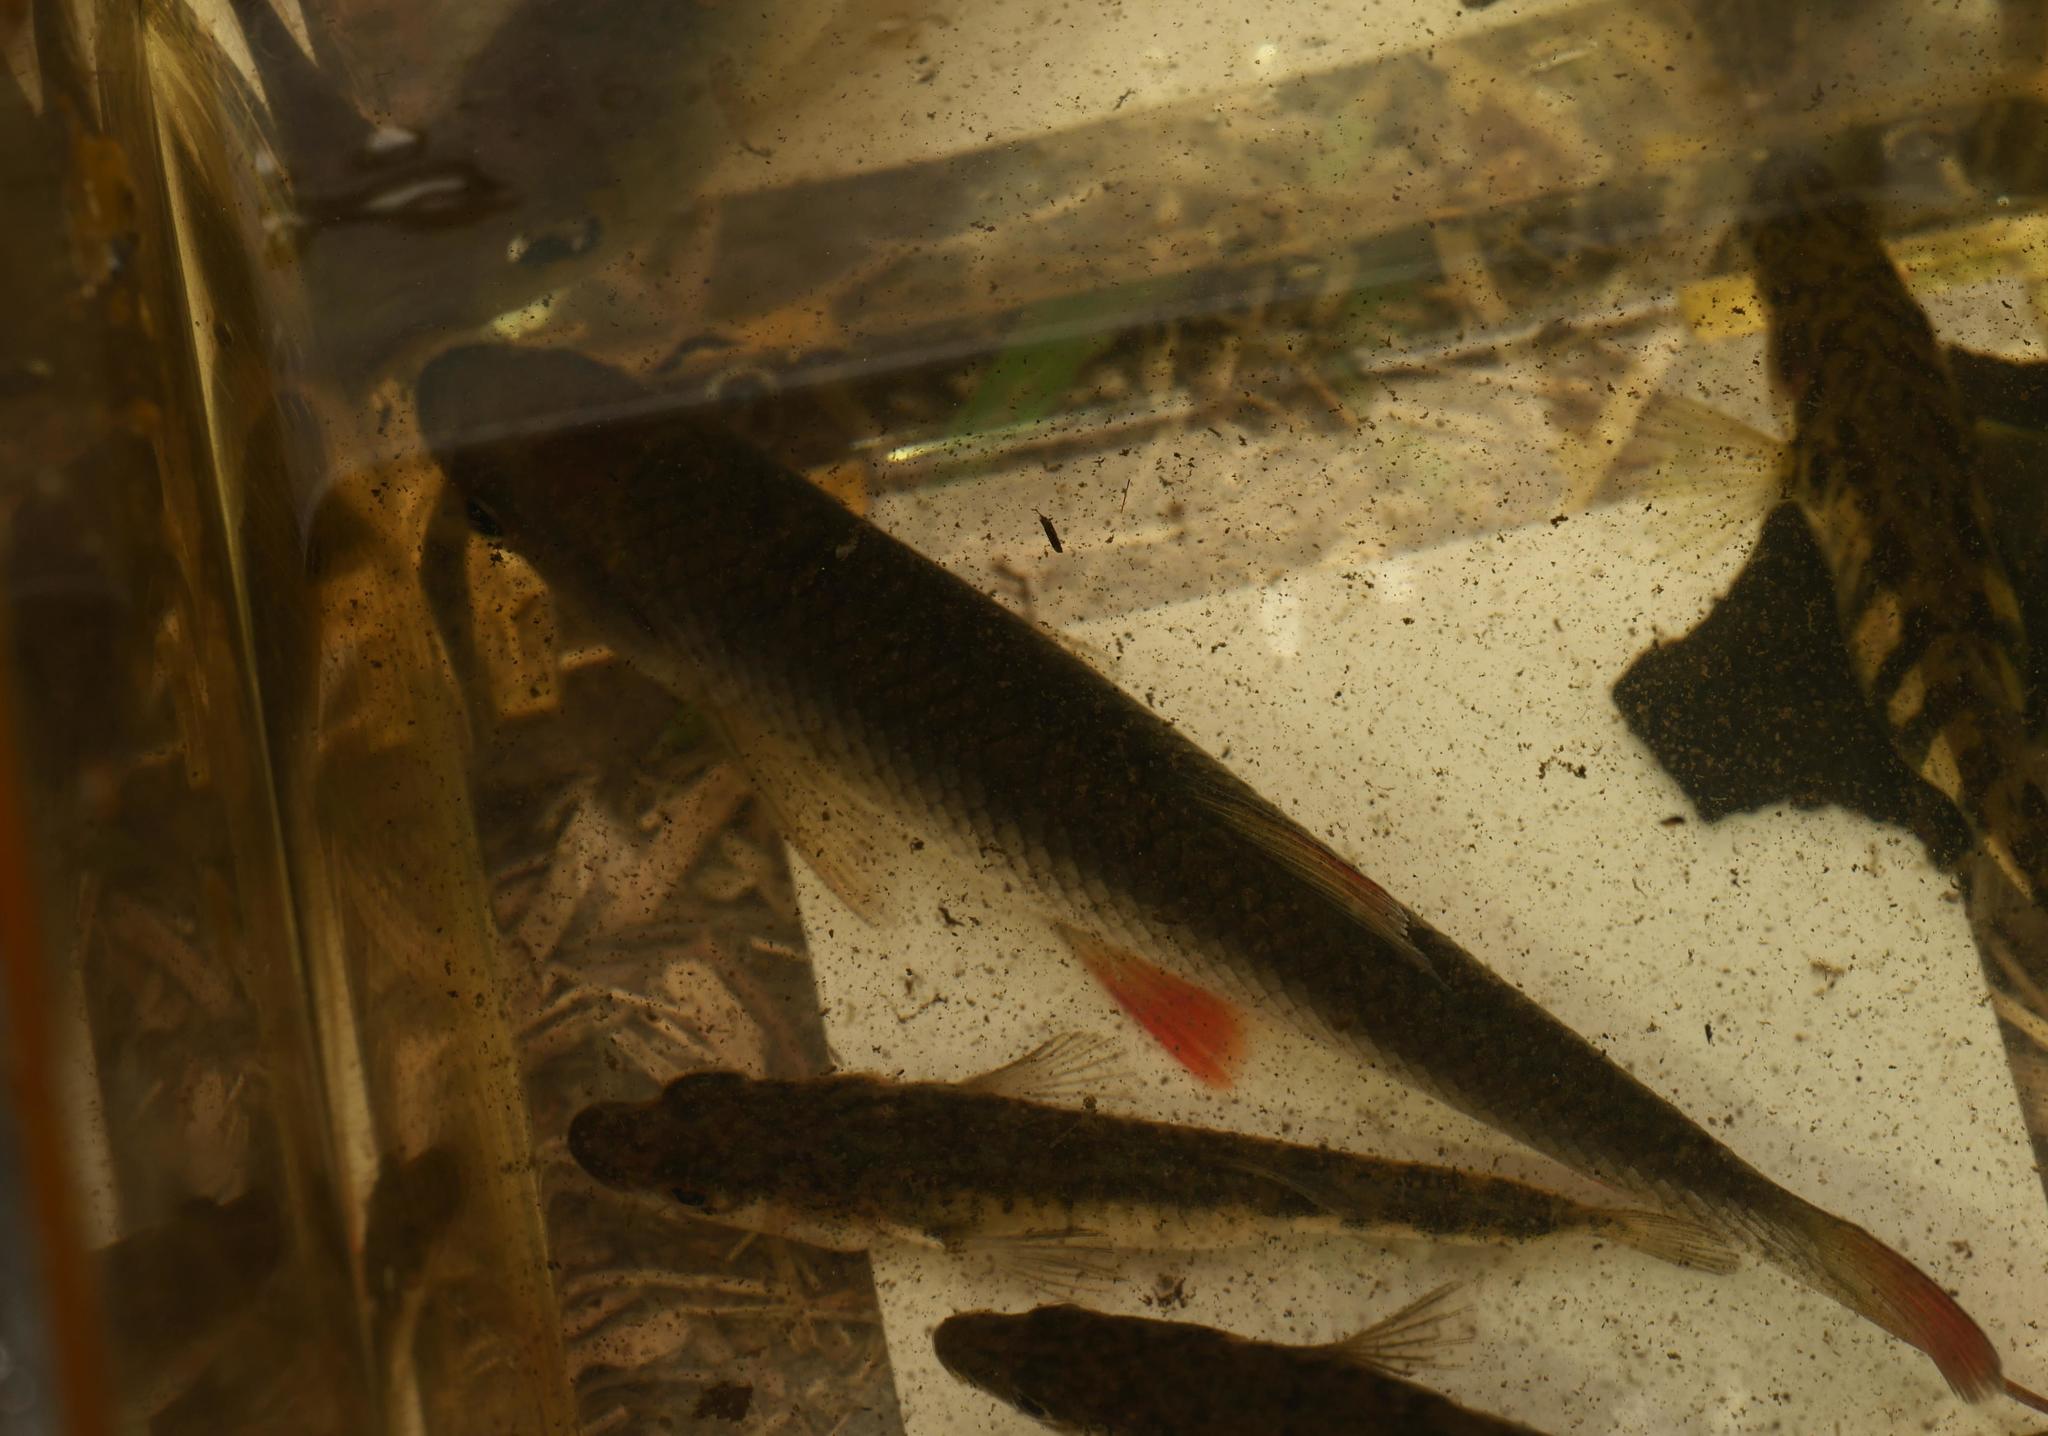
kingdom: Animalia
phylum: Chordata
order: Cypriniformes
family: Cyprinidae
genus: Scardinius
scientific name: Scardinius erythrophthalmus
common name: Rudd
